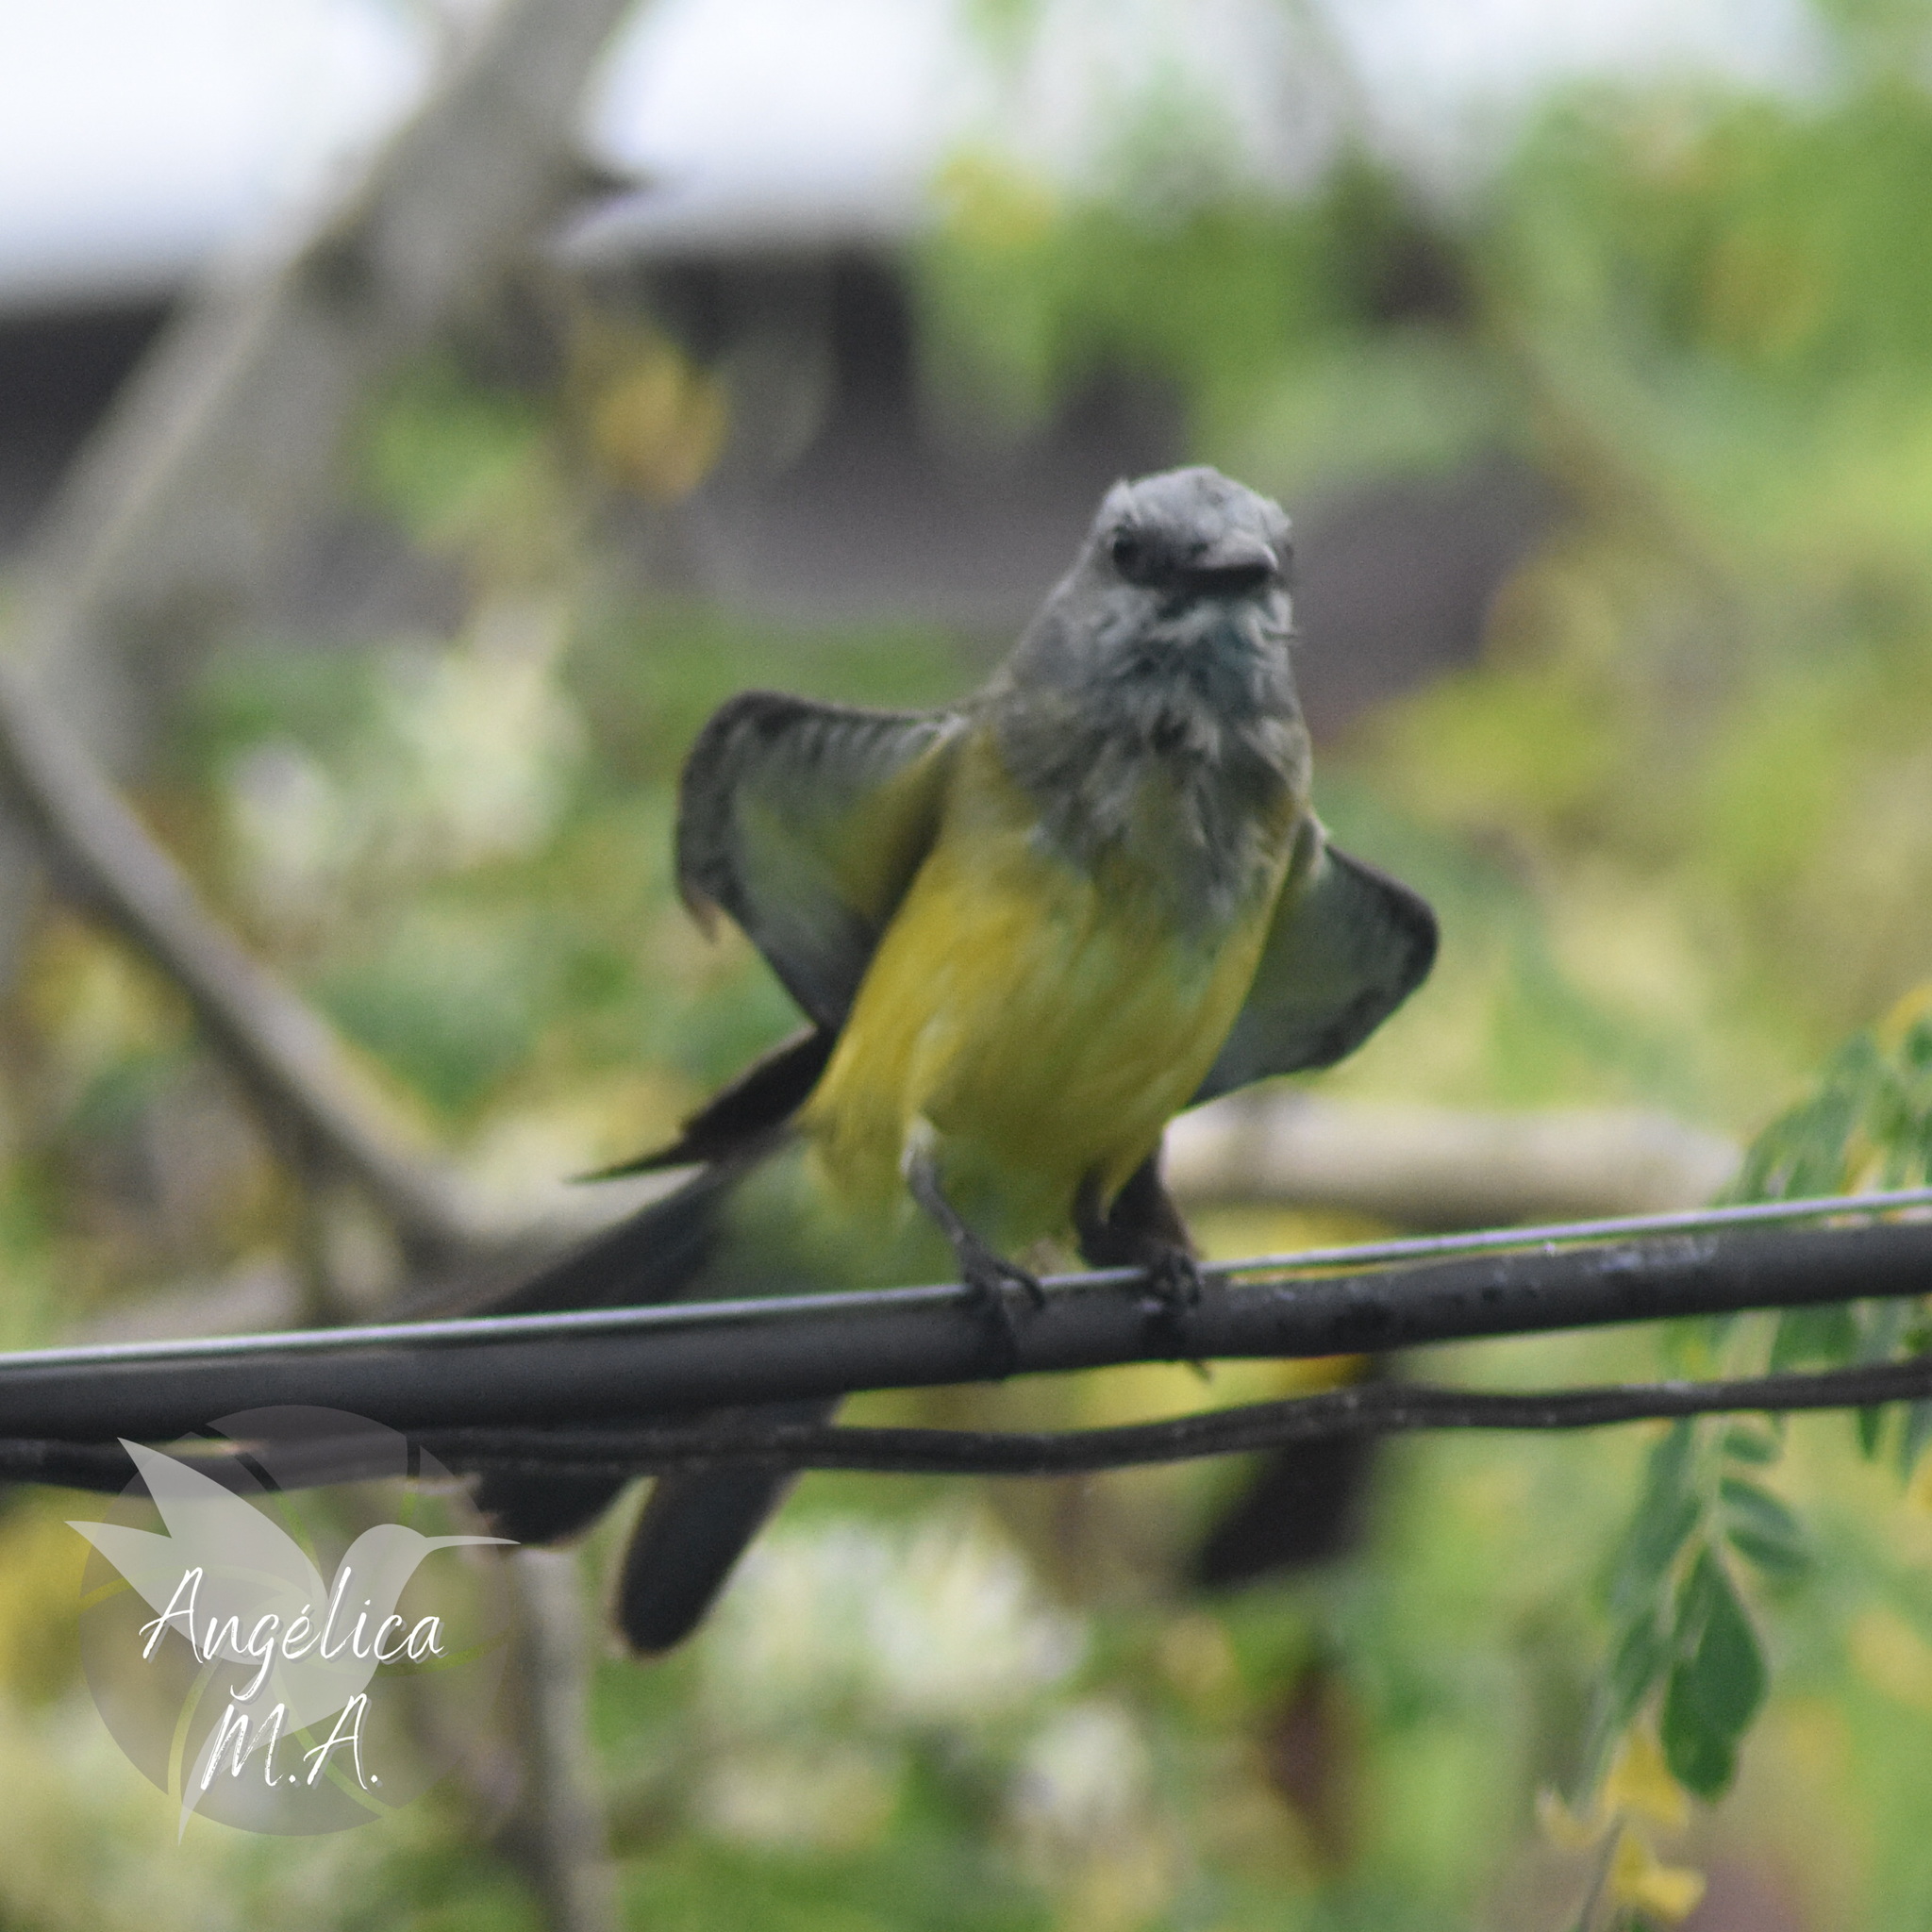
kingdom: Animalia
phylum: Chordata
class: Aves
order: Passeriformes
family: Tyrannidae
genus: Tyrannus
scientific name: Tyrannus melancholicus
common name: Tropical kingbird
